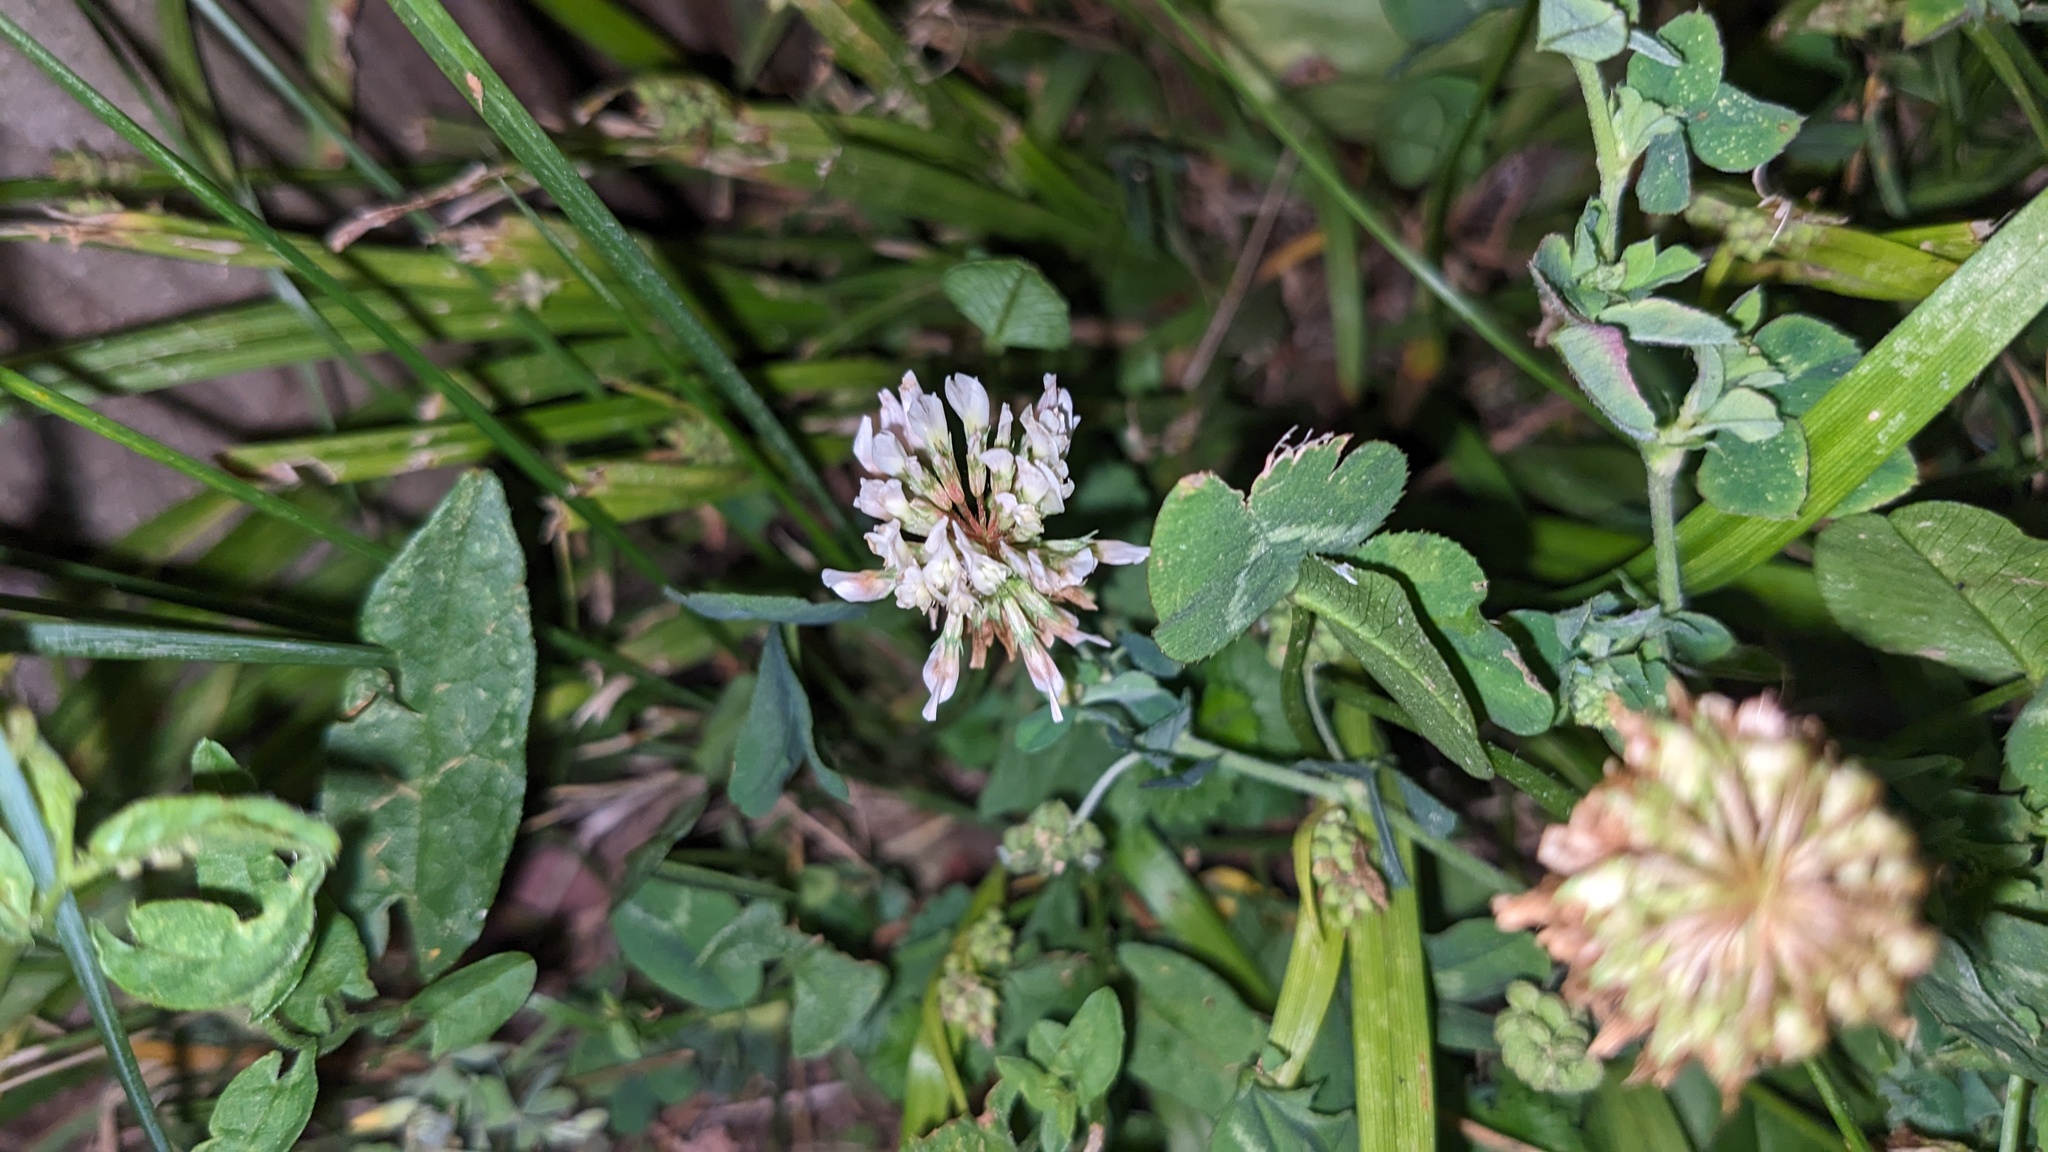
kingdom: Plantae
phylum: Tracheophyta
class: Magnoliopsida
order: Fabales
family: Fabaceae
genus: Trifolium
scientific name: Trifolium repens
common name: White clover
